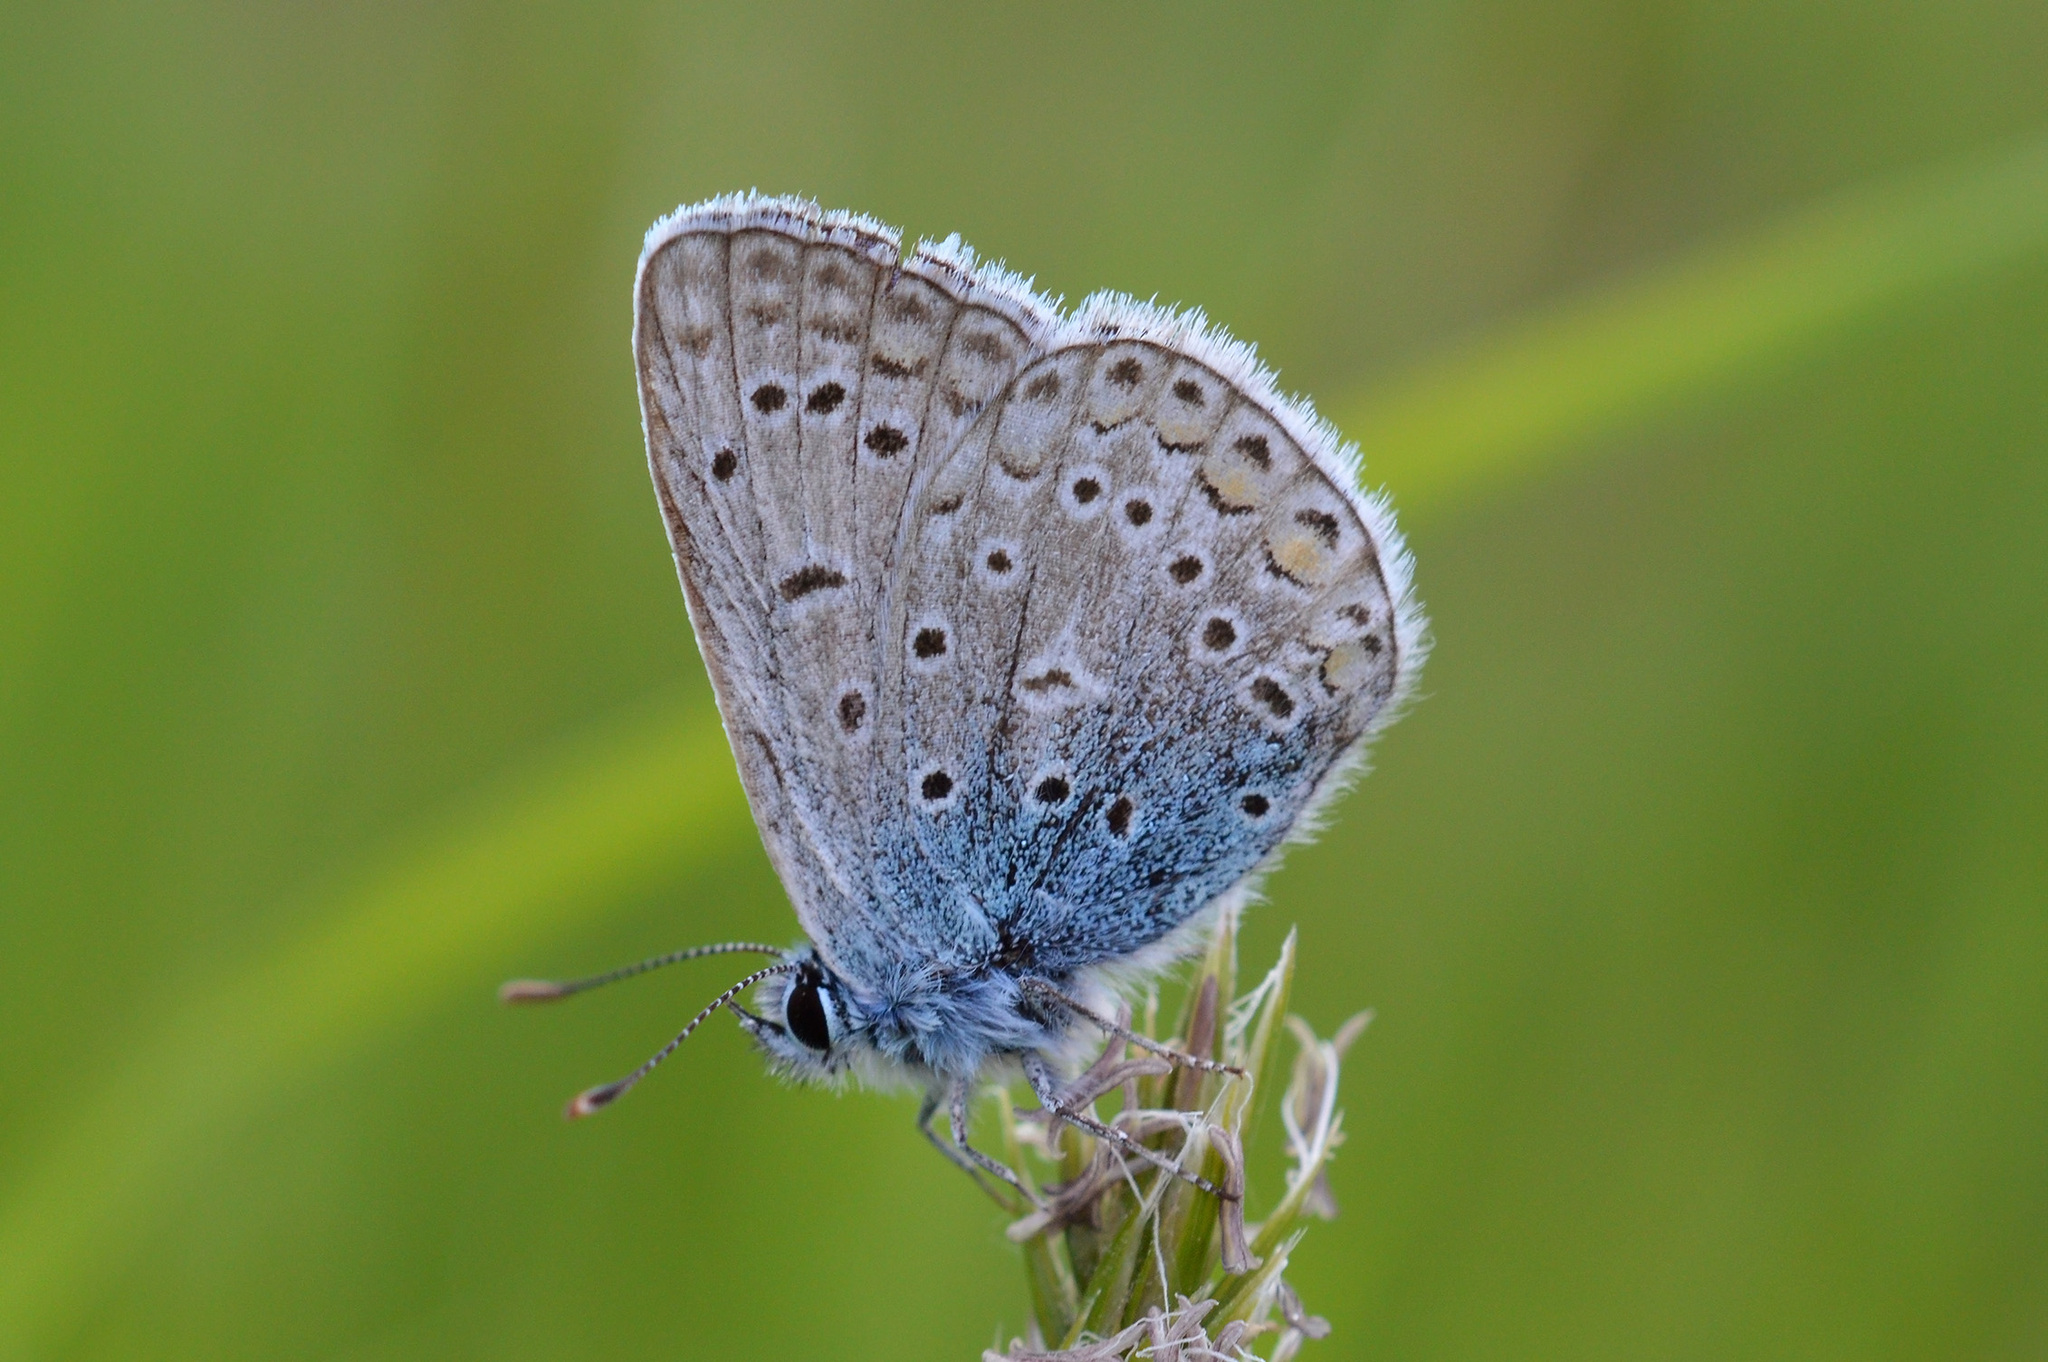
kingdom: Animalia
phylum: Arthropoda
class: Insecta
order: Lepidoptera
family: Lycaenidae
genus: Polyommatus
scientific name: Polyommatus icarus
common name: Common blue
